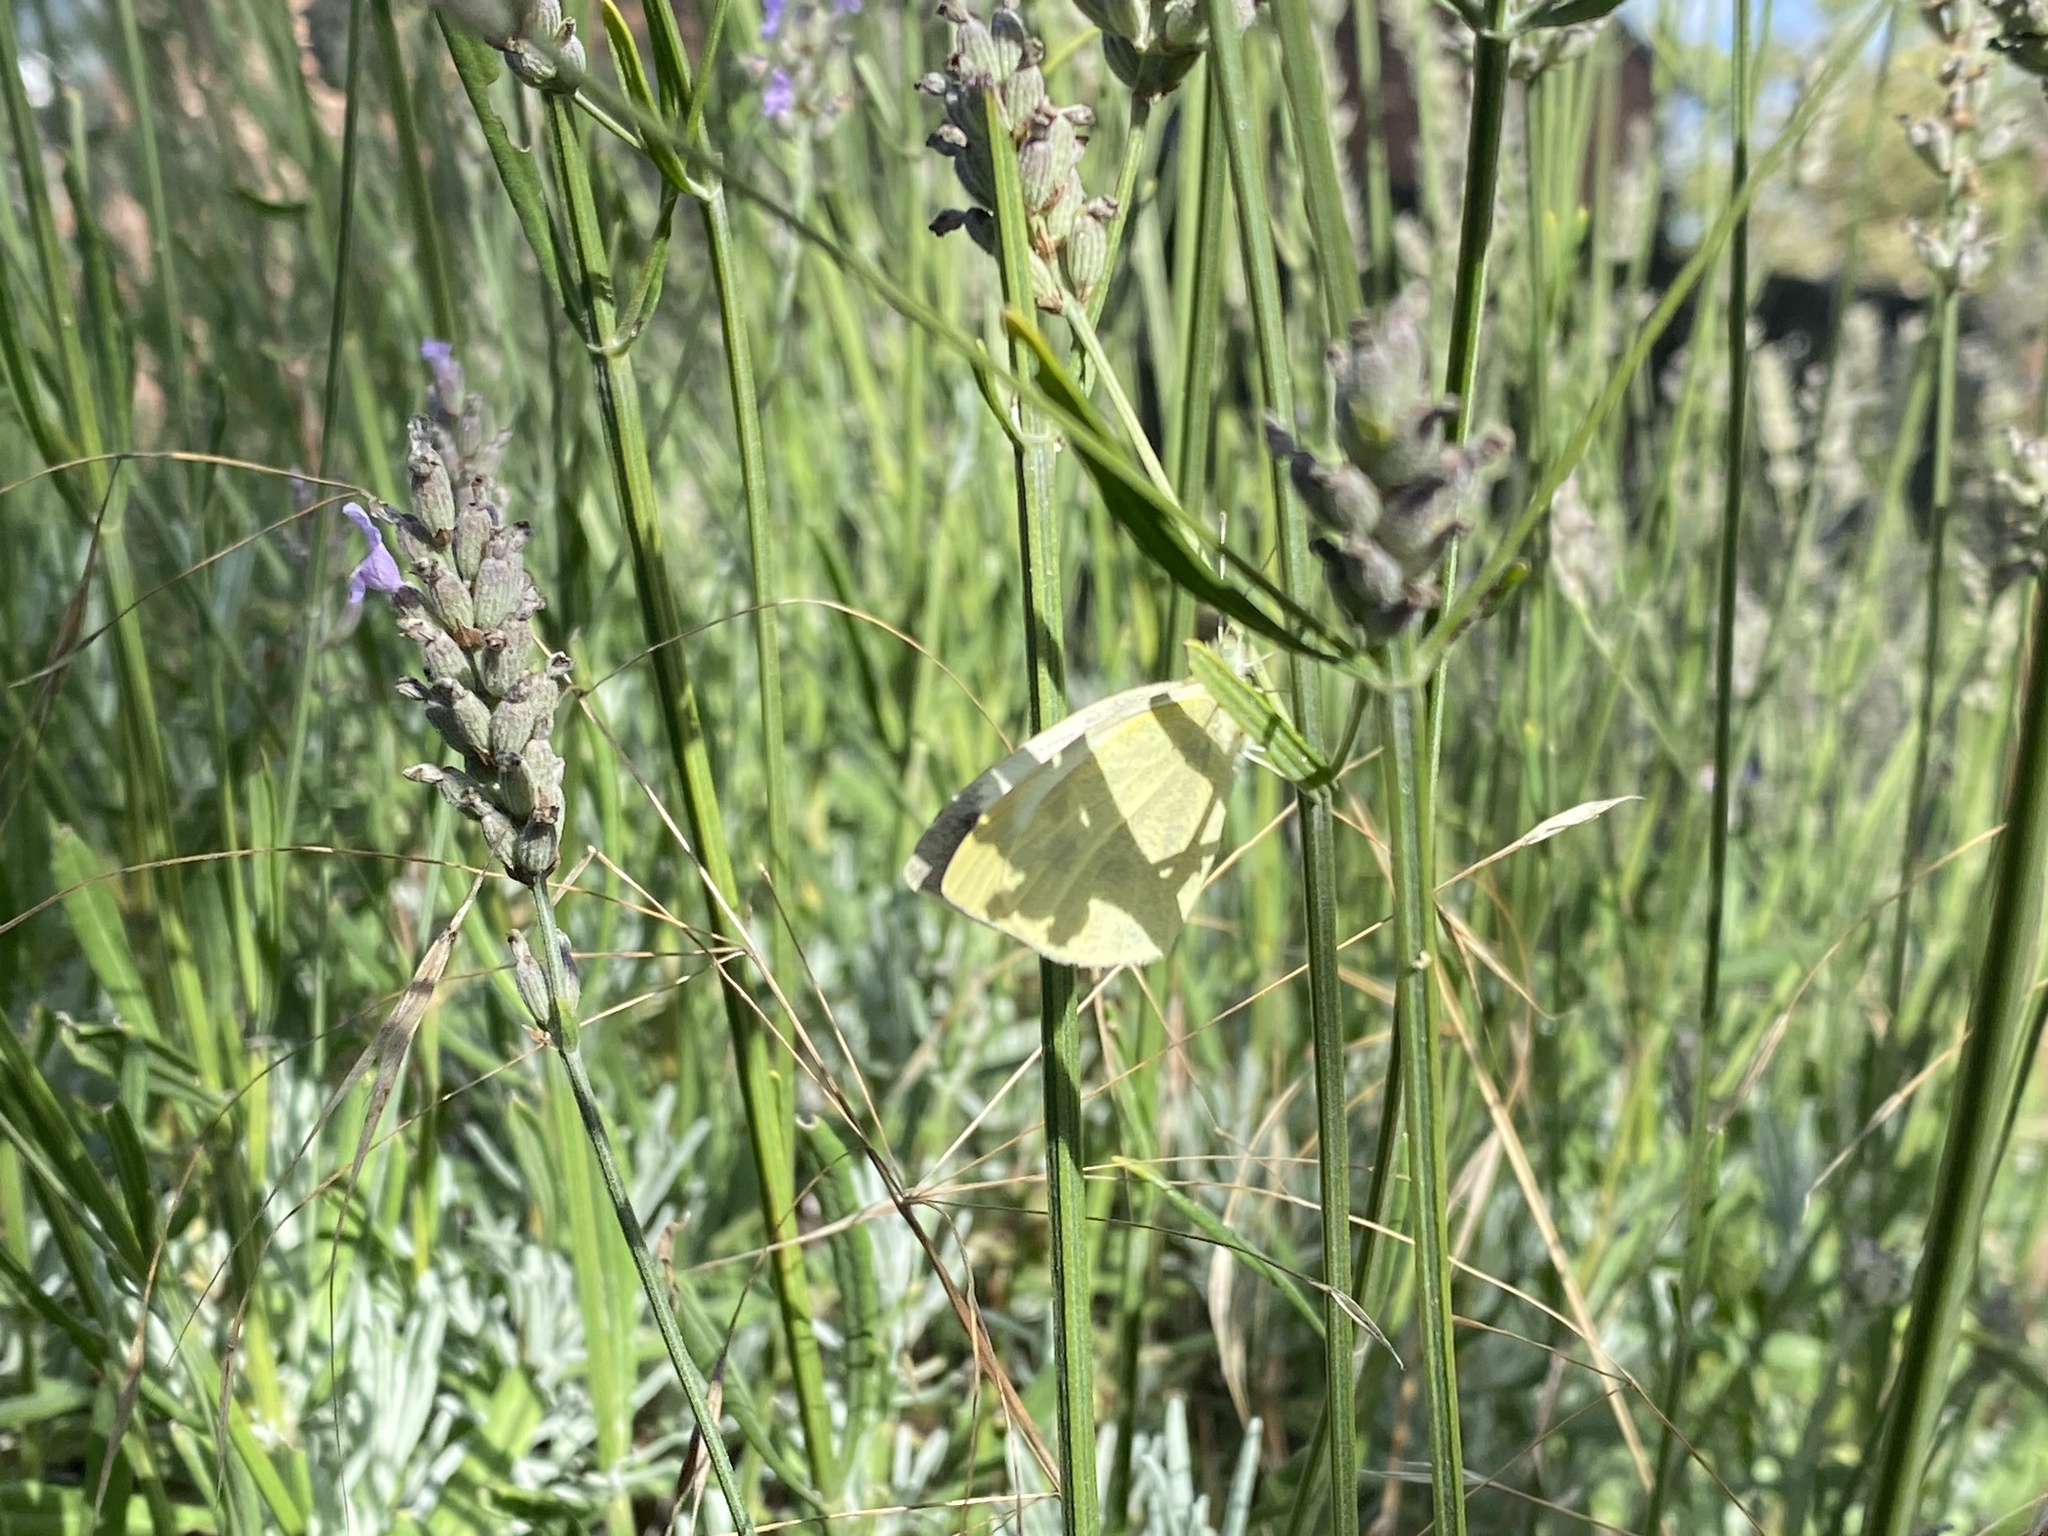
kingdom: Animalia
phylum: Arthropoda
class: Insecta
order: Lepidoptera
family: Pieridae
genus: Pieris
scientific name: Pieris rapae
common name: Small white
